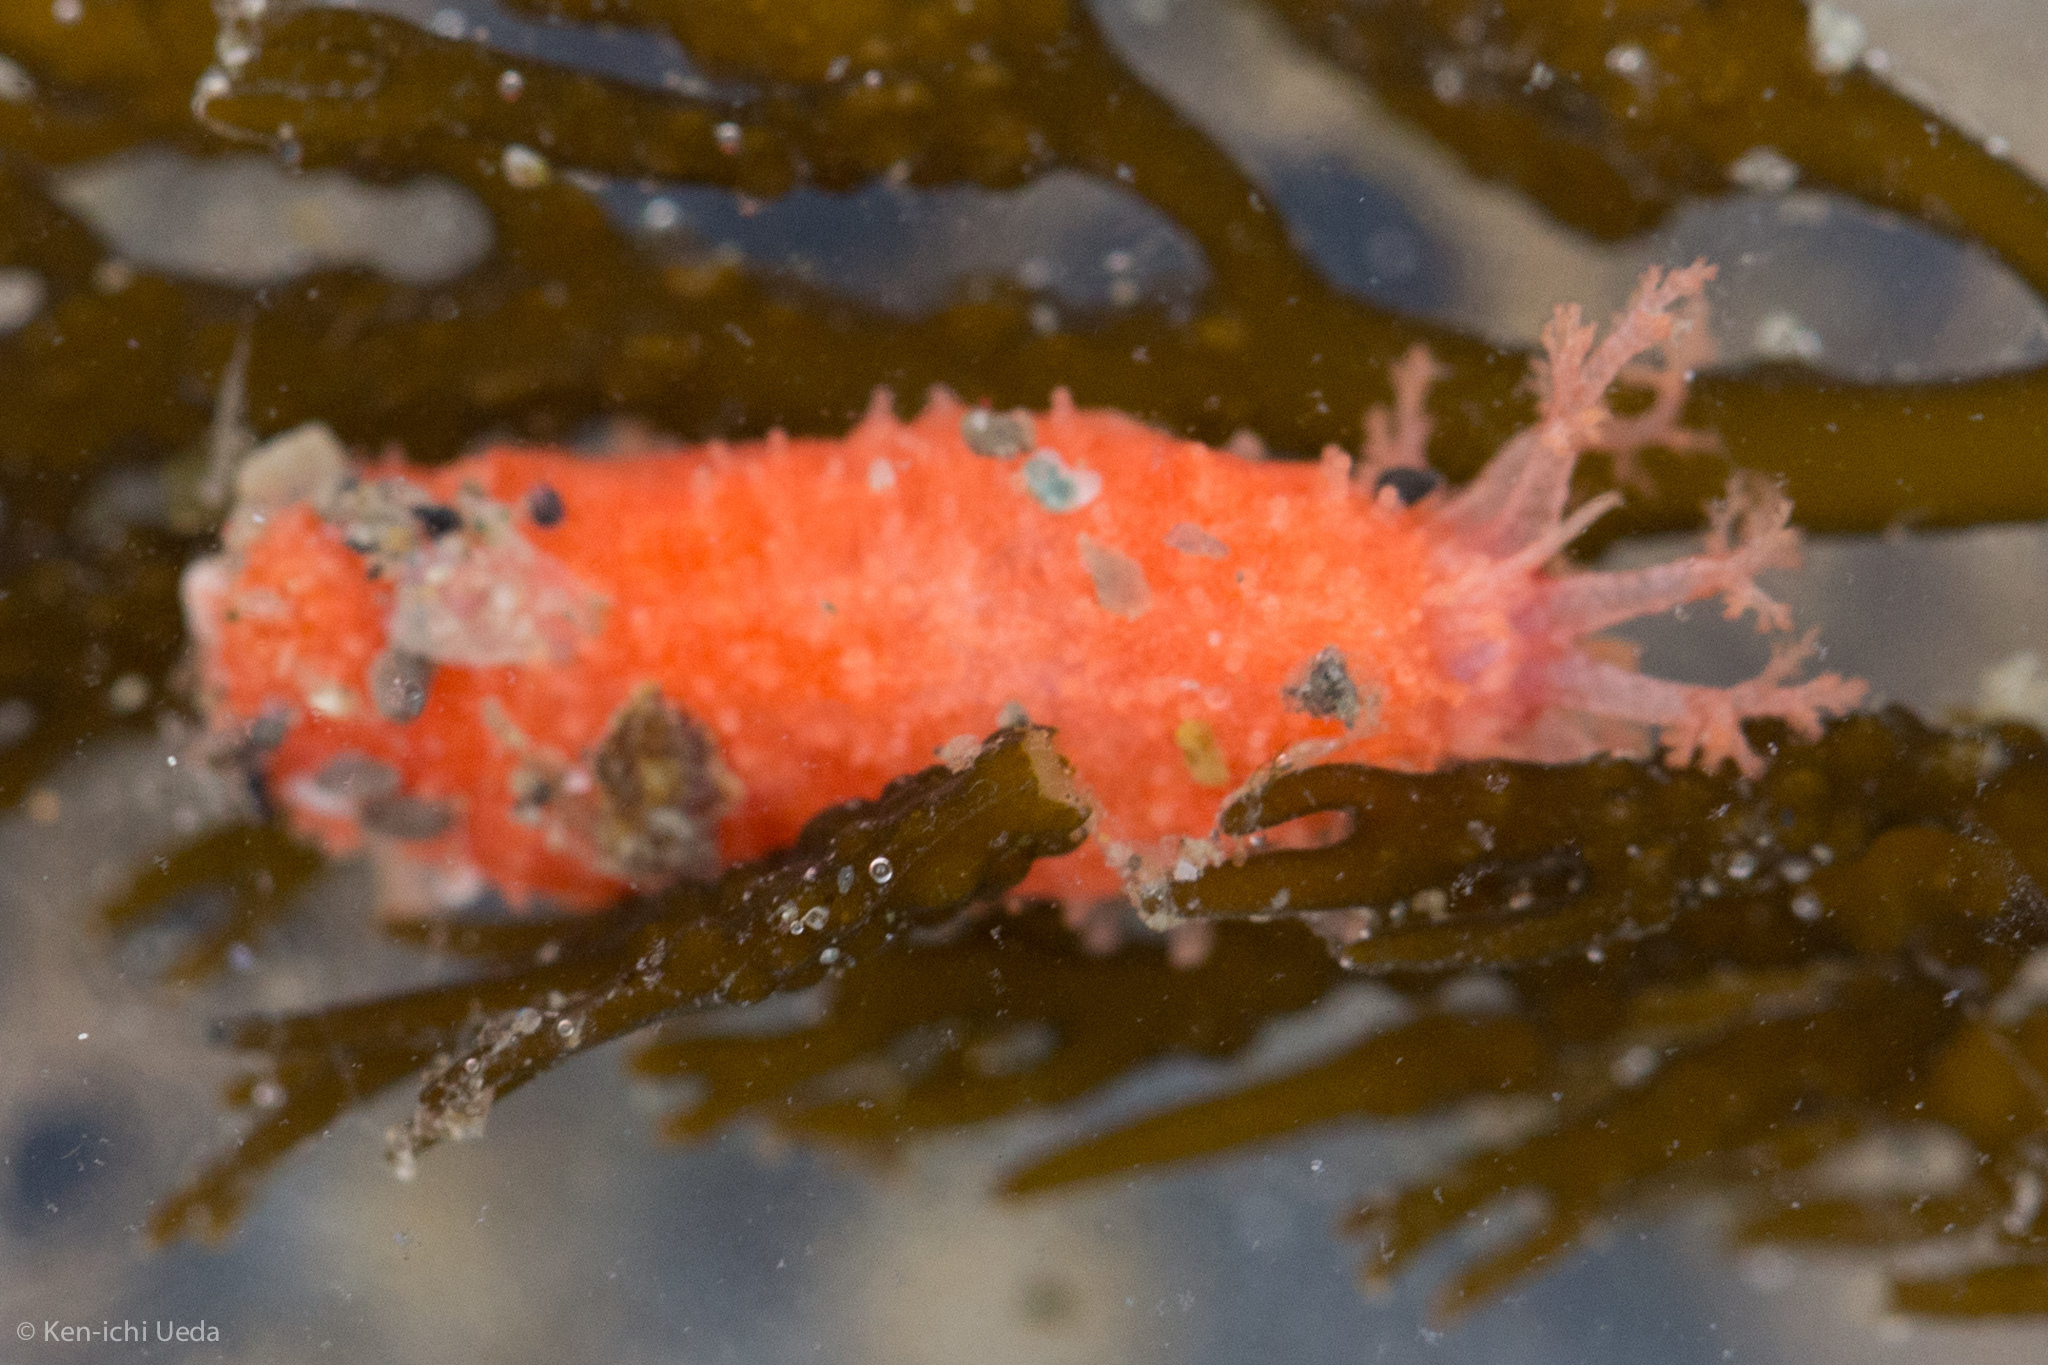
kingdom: Animalia
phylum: Echinodermata
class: Holothuroidea
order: Dendrochirotida
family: Psolidae
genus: Lissothuria
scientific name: Lissothuria nutriens
